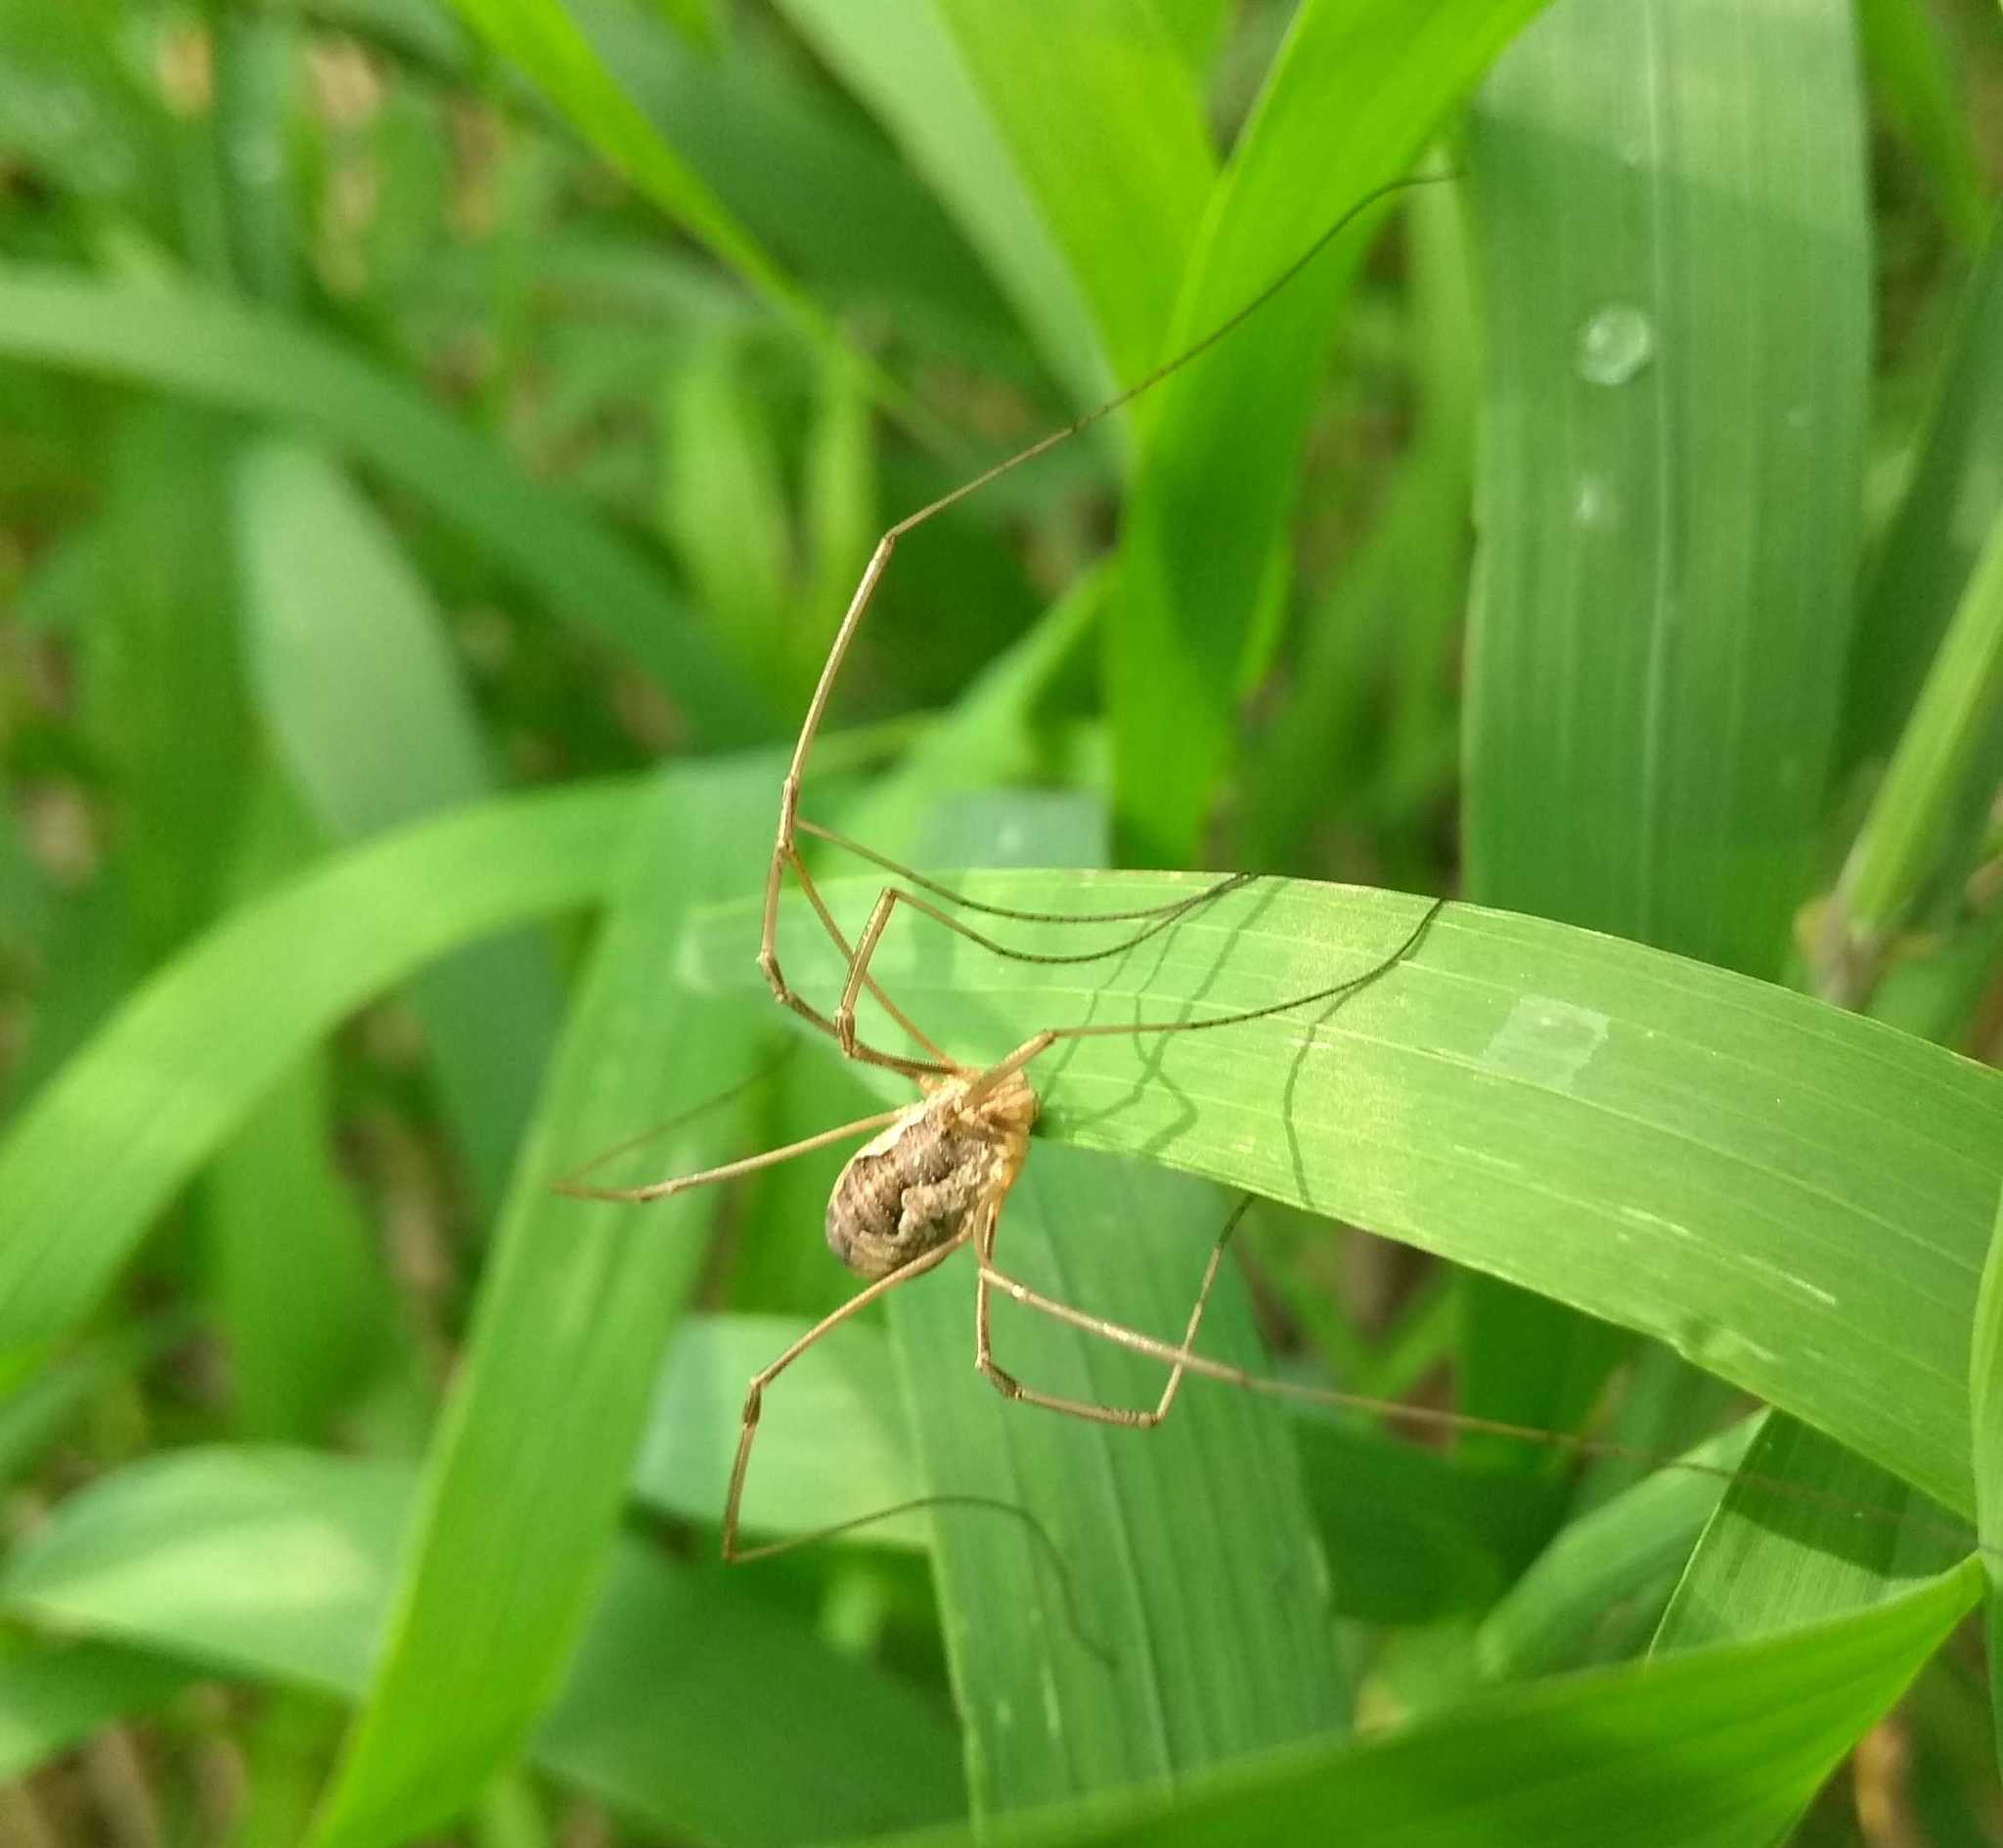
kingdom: Animalia
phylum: Arthropoda
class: Arachnida
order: Opiliones
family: Phalangiidae
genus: Phalangium
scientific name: Phalangium opilio
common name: Daddy longleg
